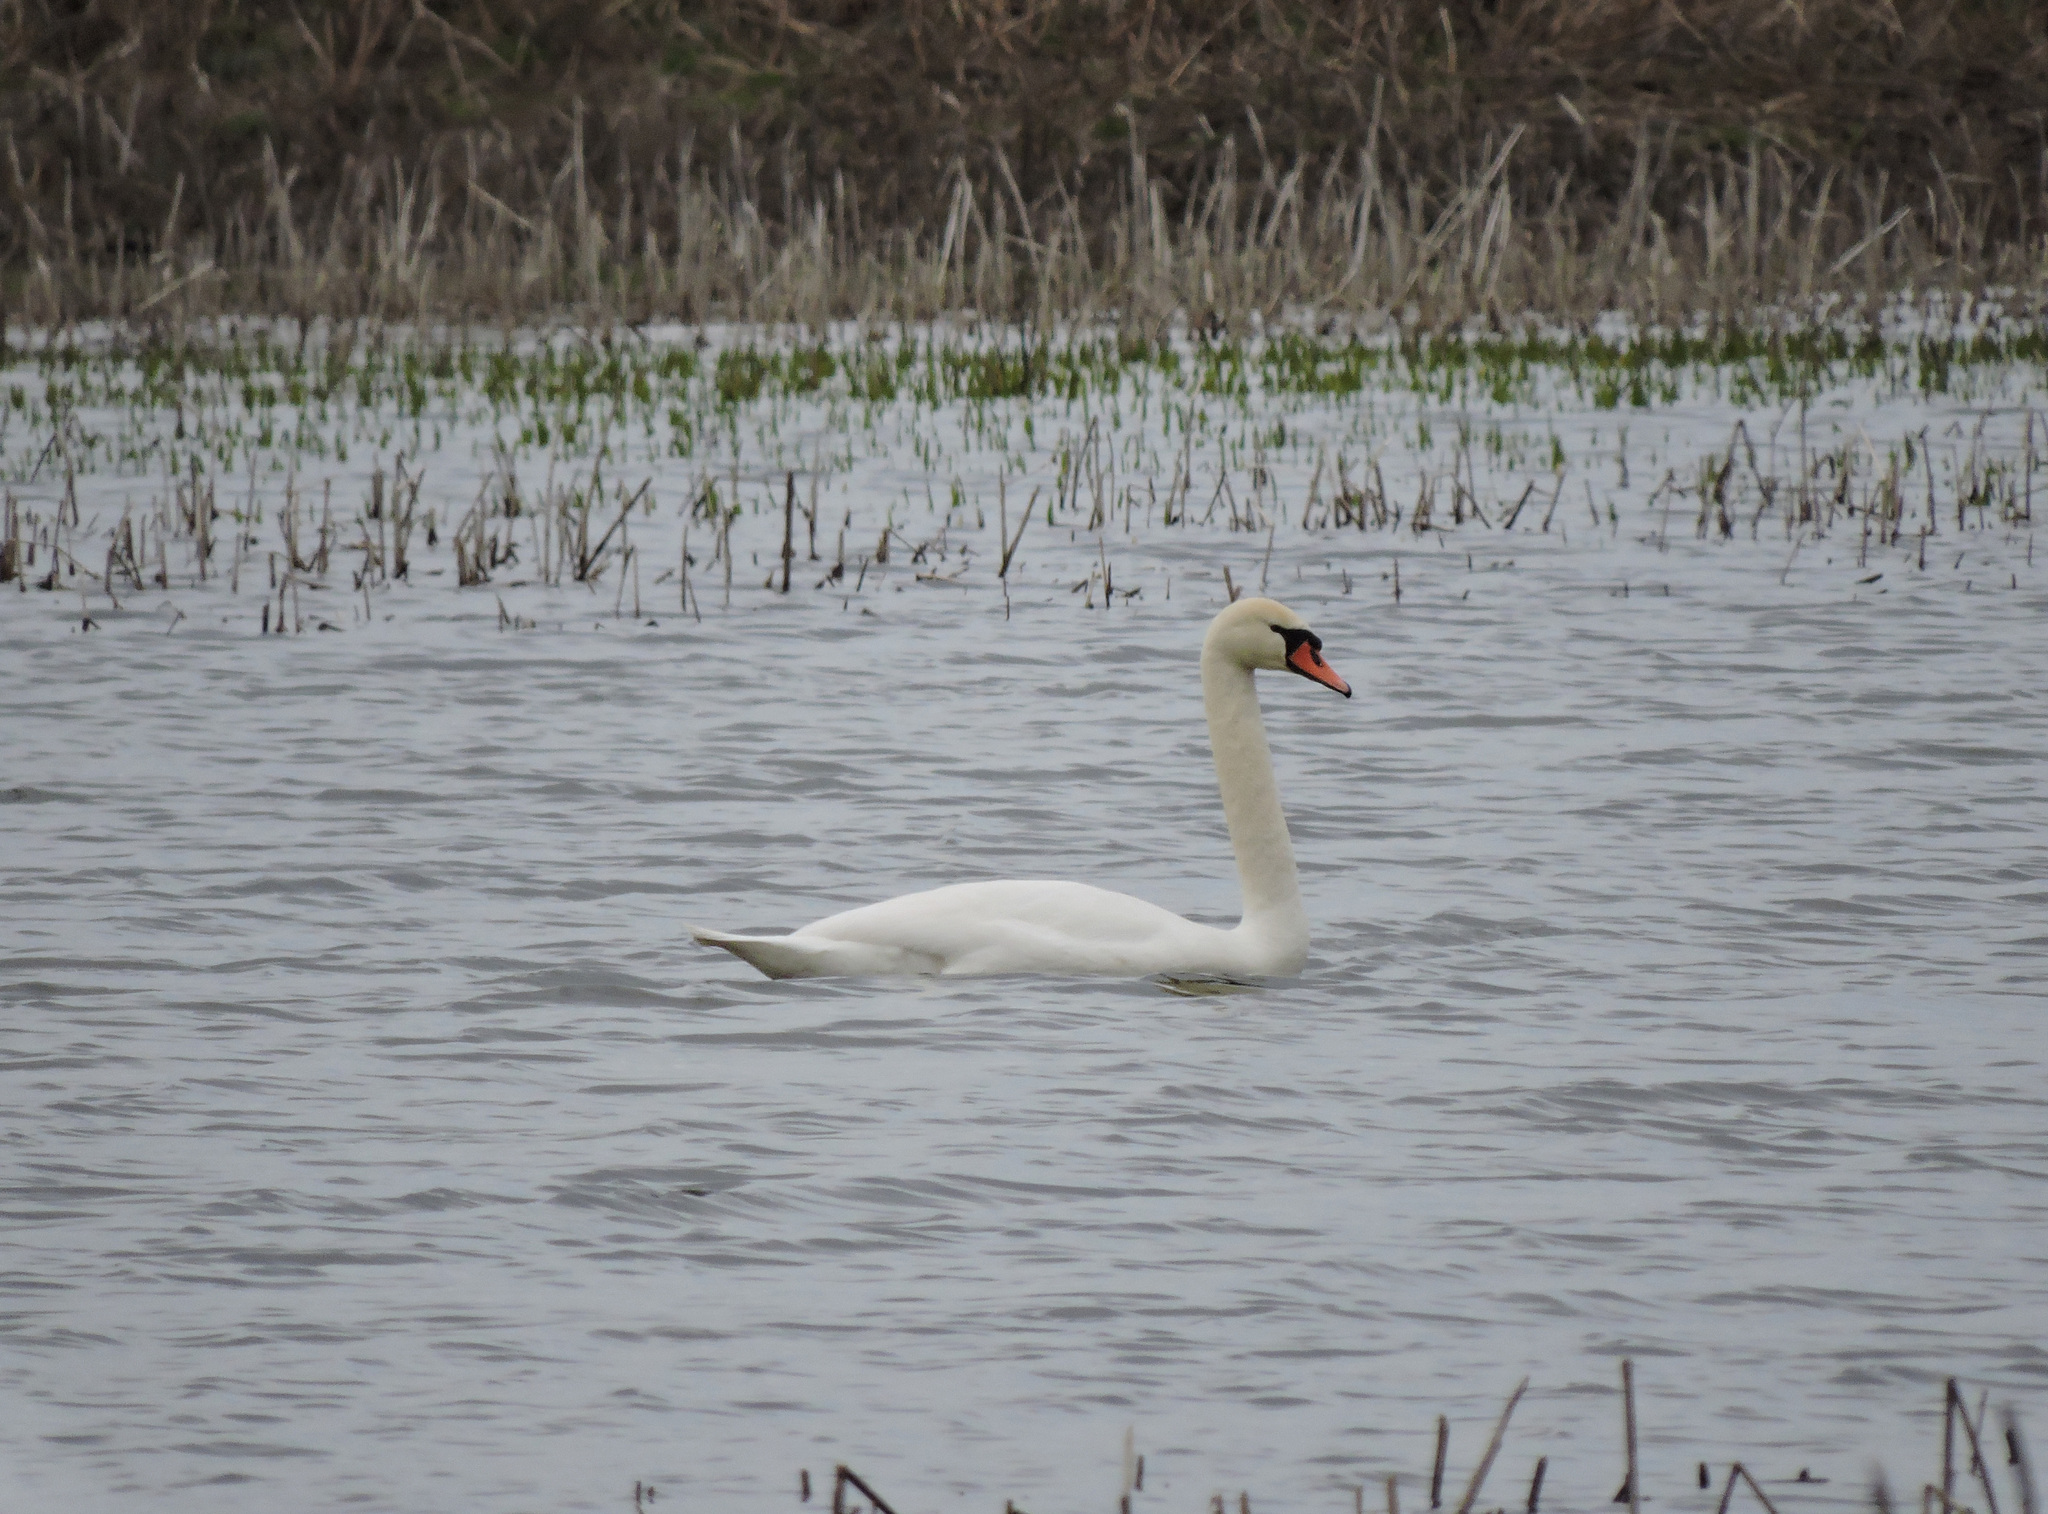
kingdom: Animalia
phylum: Chordata
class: Aves
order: Anseriformes
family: Anatidae
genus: Cygnus
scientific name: Cygnus olor
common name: Mute swan
